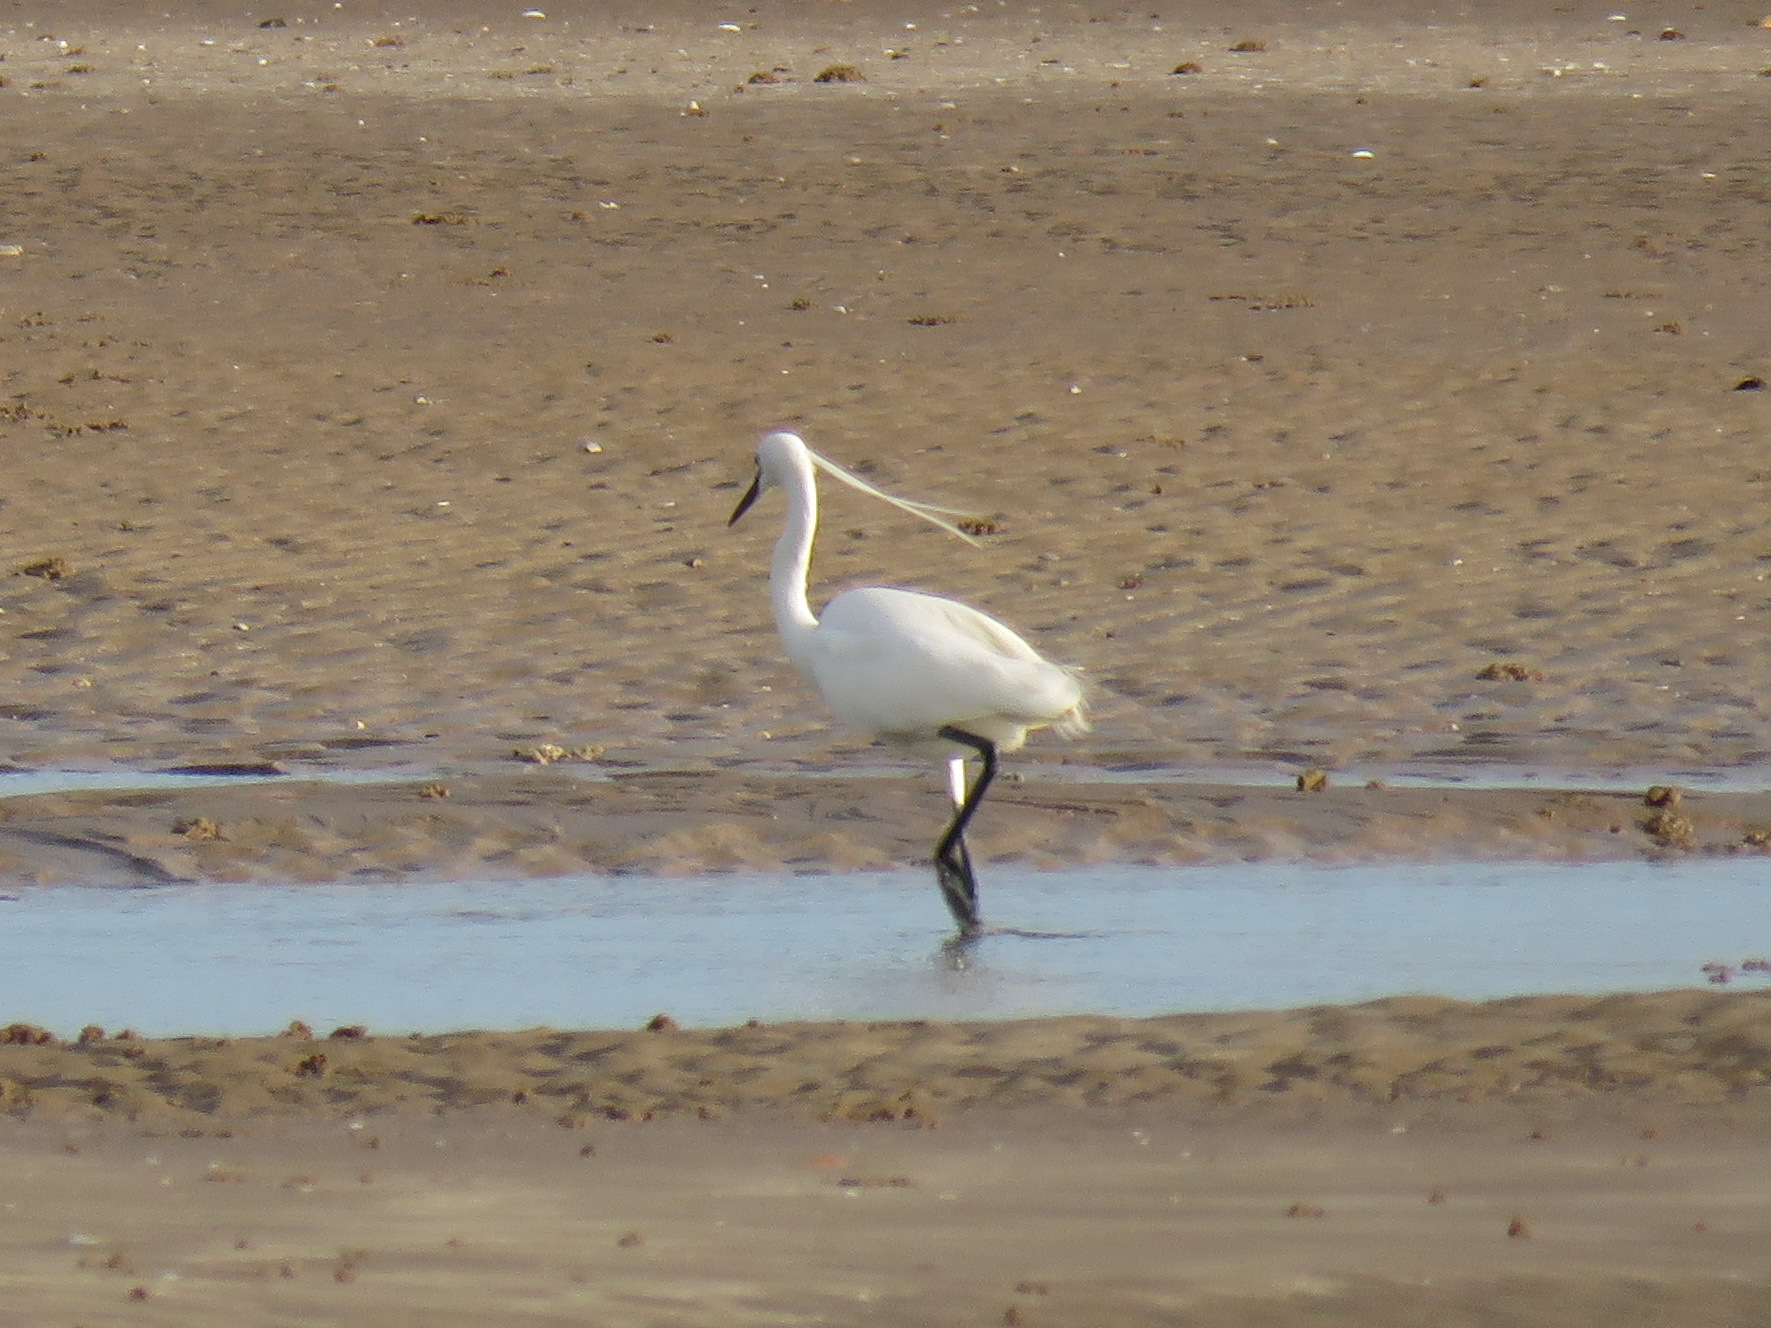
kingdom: Animalia
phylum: Chordata
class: Aves
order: Pelecaniformes
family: Ardeidae
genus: Egretta
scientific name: Egretta garzetta
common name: Little egret
